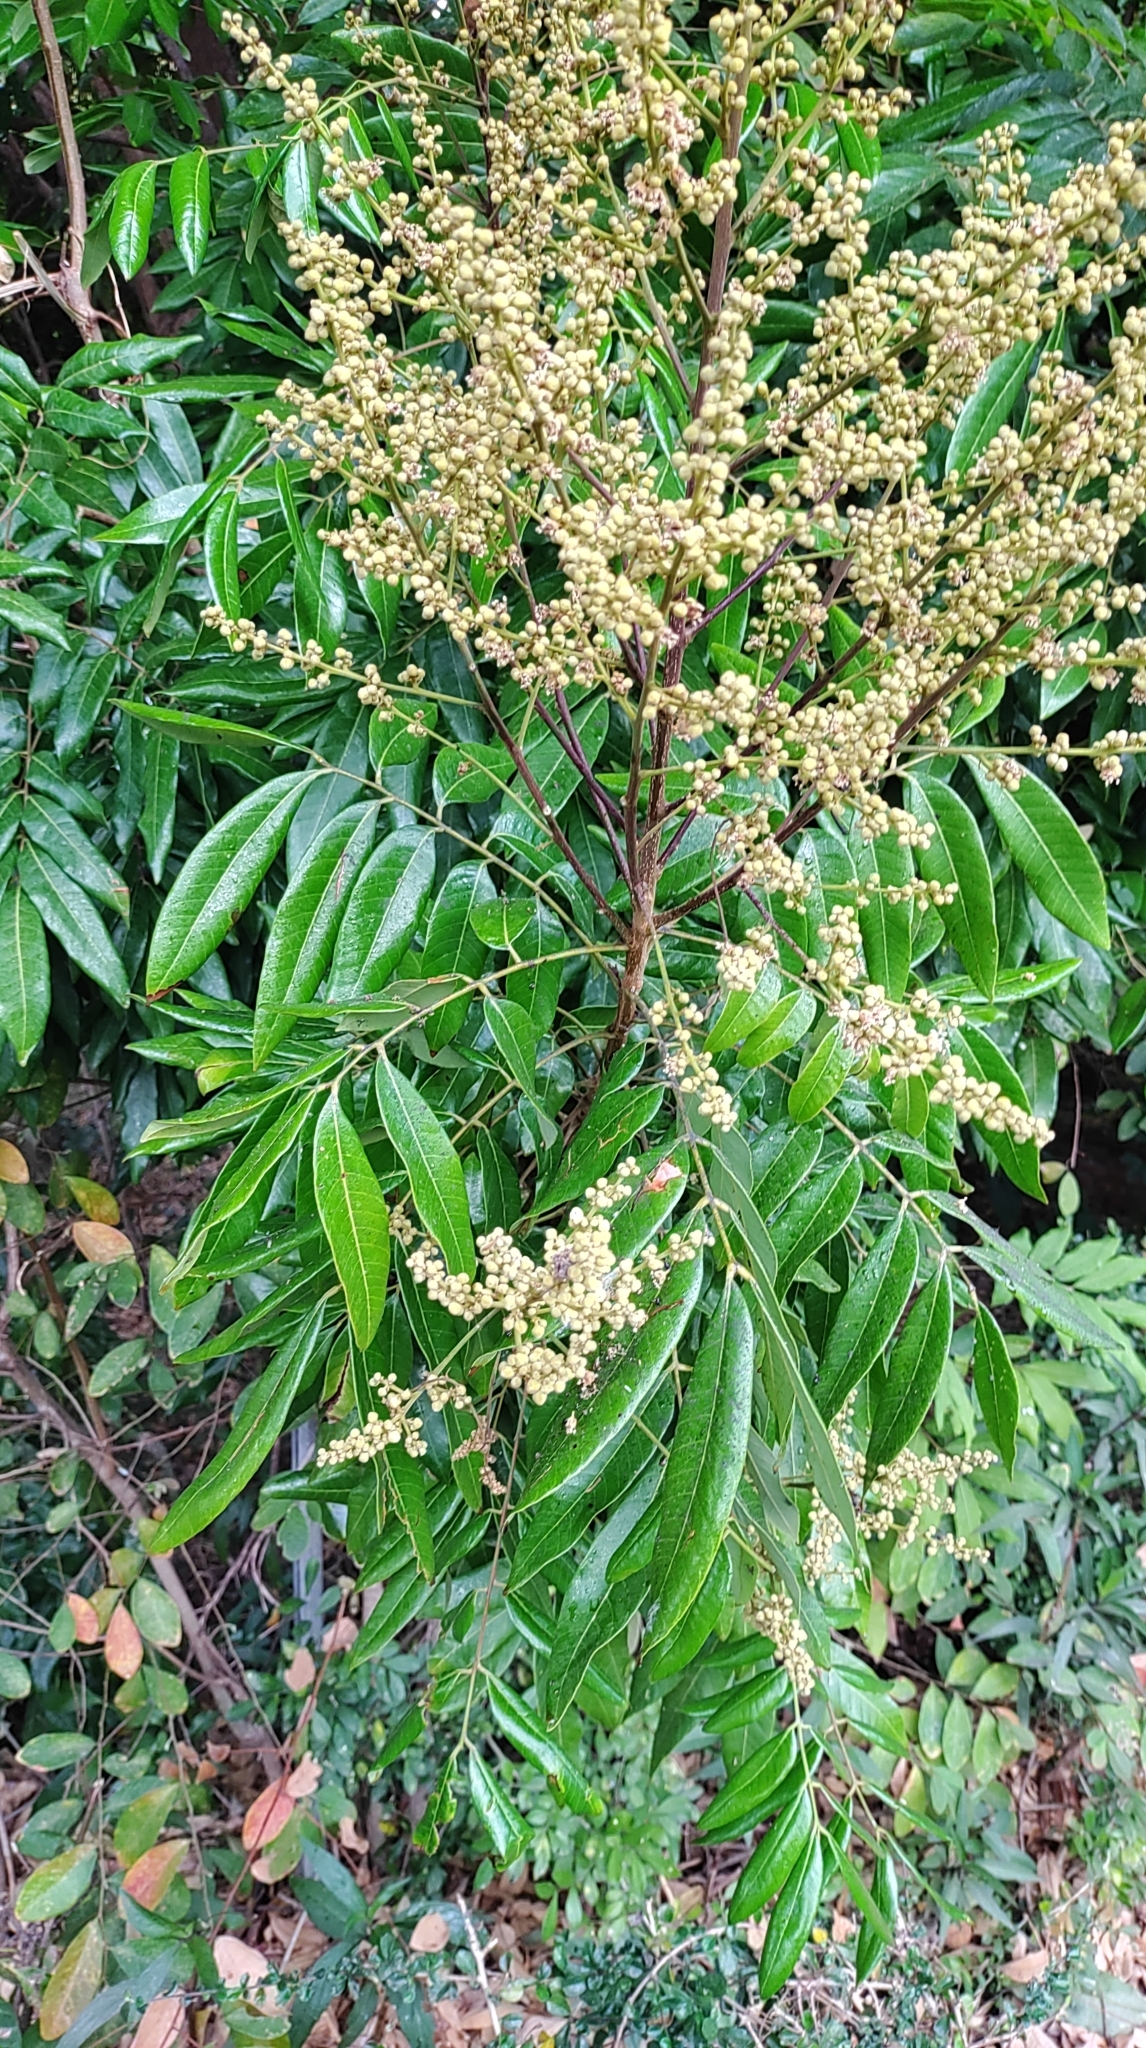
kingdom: Plantae
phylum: Tracheophyta
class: Magnoliopsida
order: Sapindales
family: Sapindaceae
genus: Dimocarpus
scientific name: Dimocarpus longan
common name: Longan
